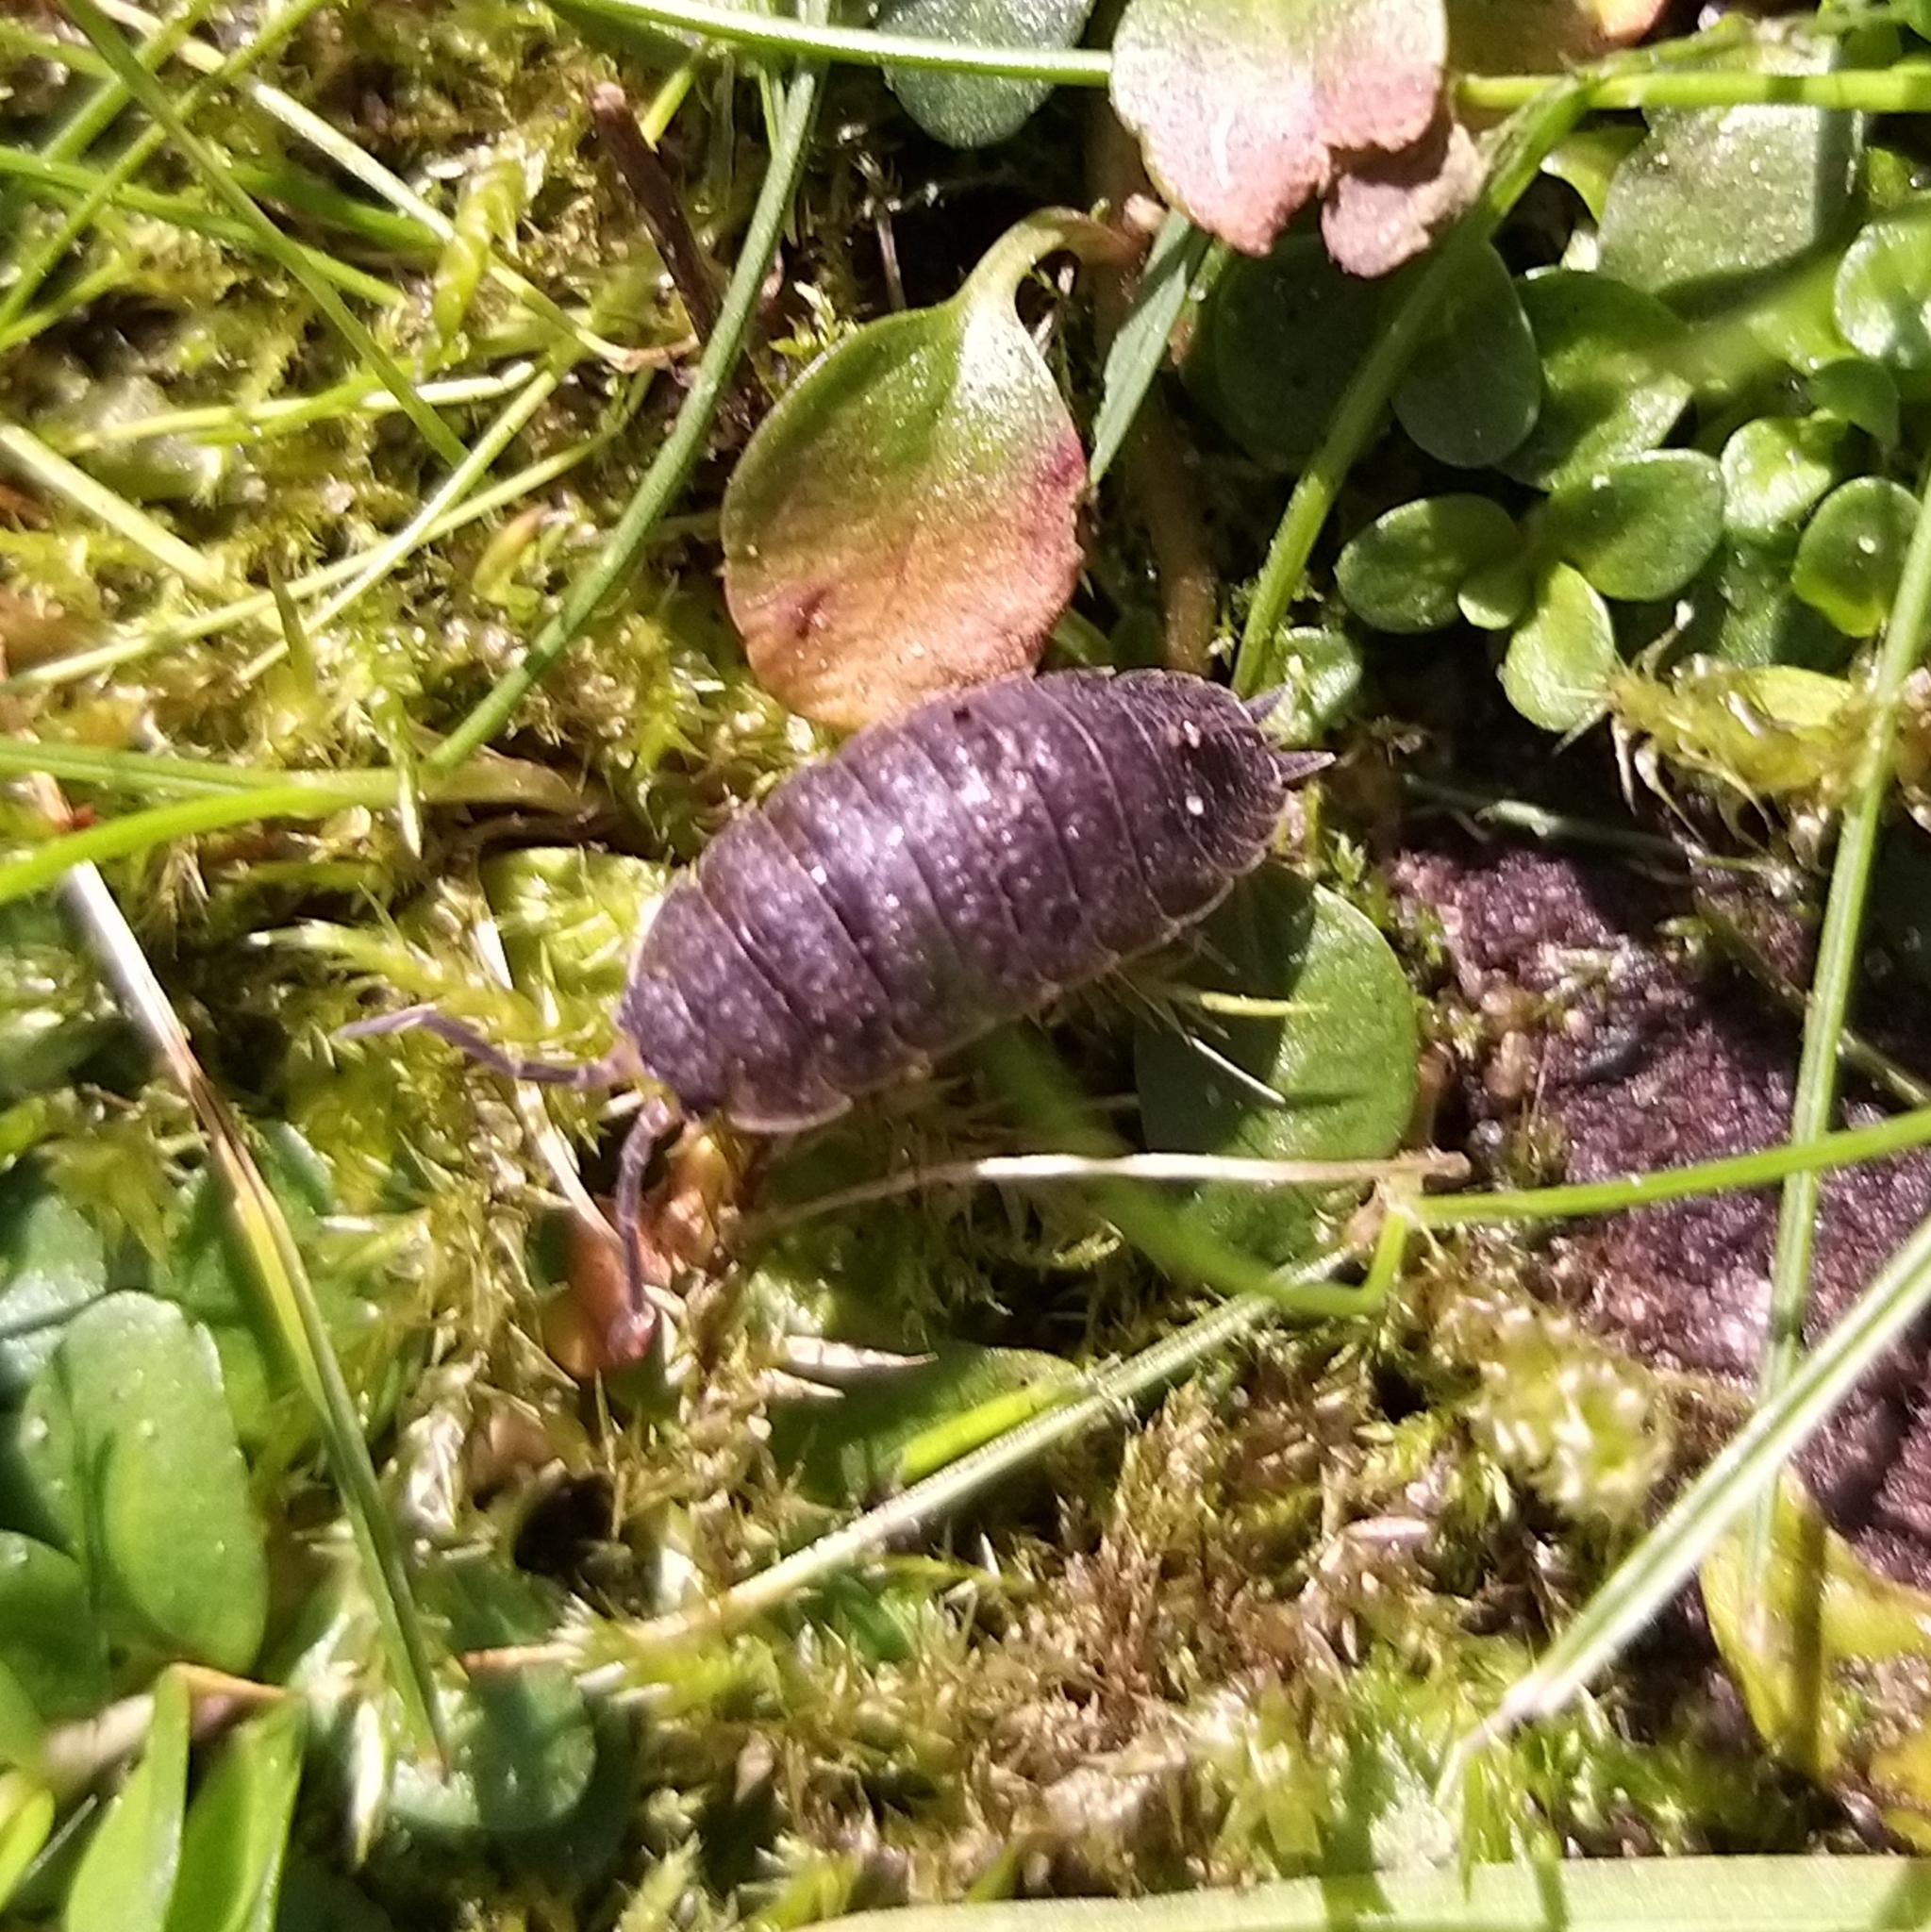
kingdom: Animalia
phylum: Arthropoda
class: Malacostraca
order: Isopoda
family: Porcellionidae
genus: Porcellio
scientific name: Porcellio scaber
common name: Common rough woodlouse
